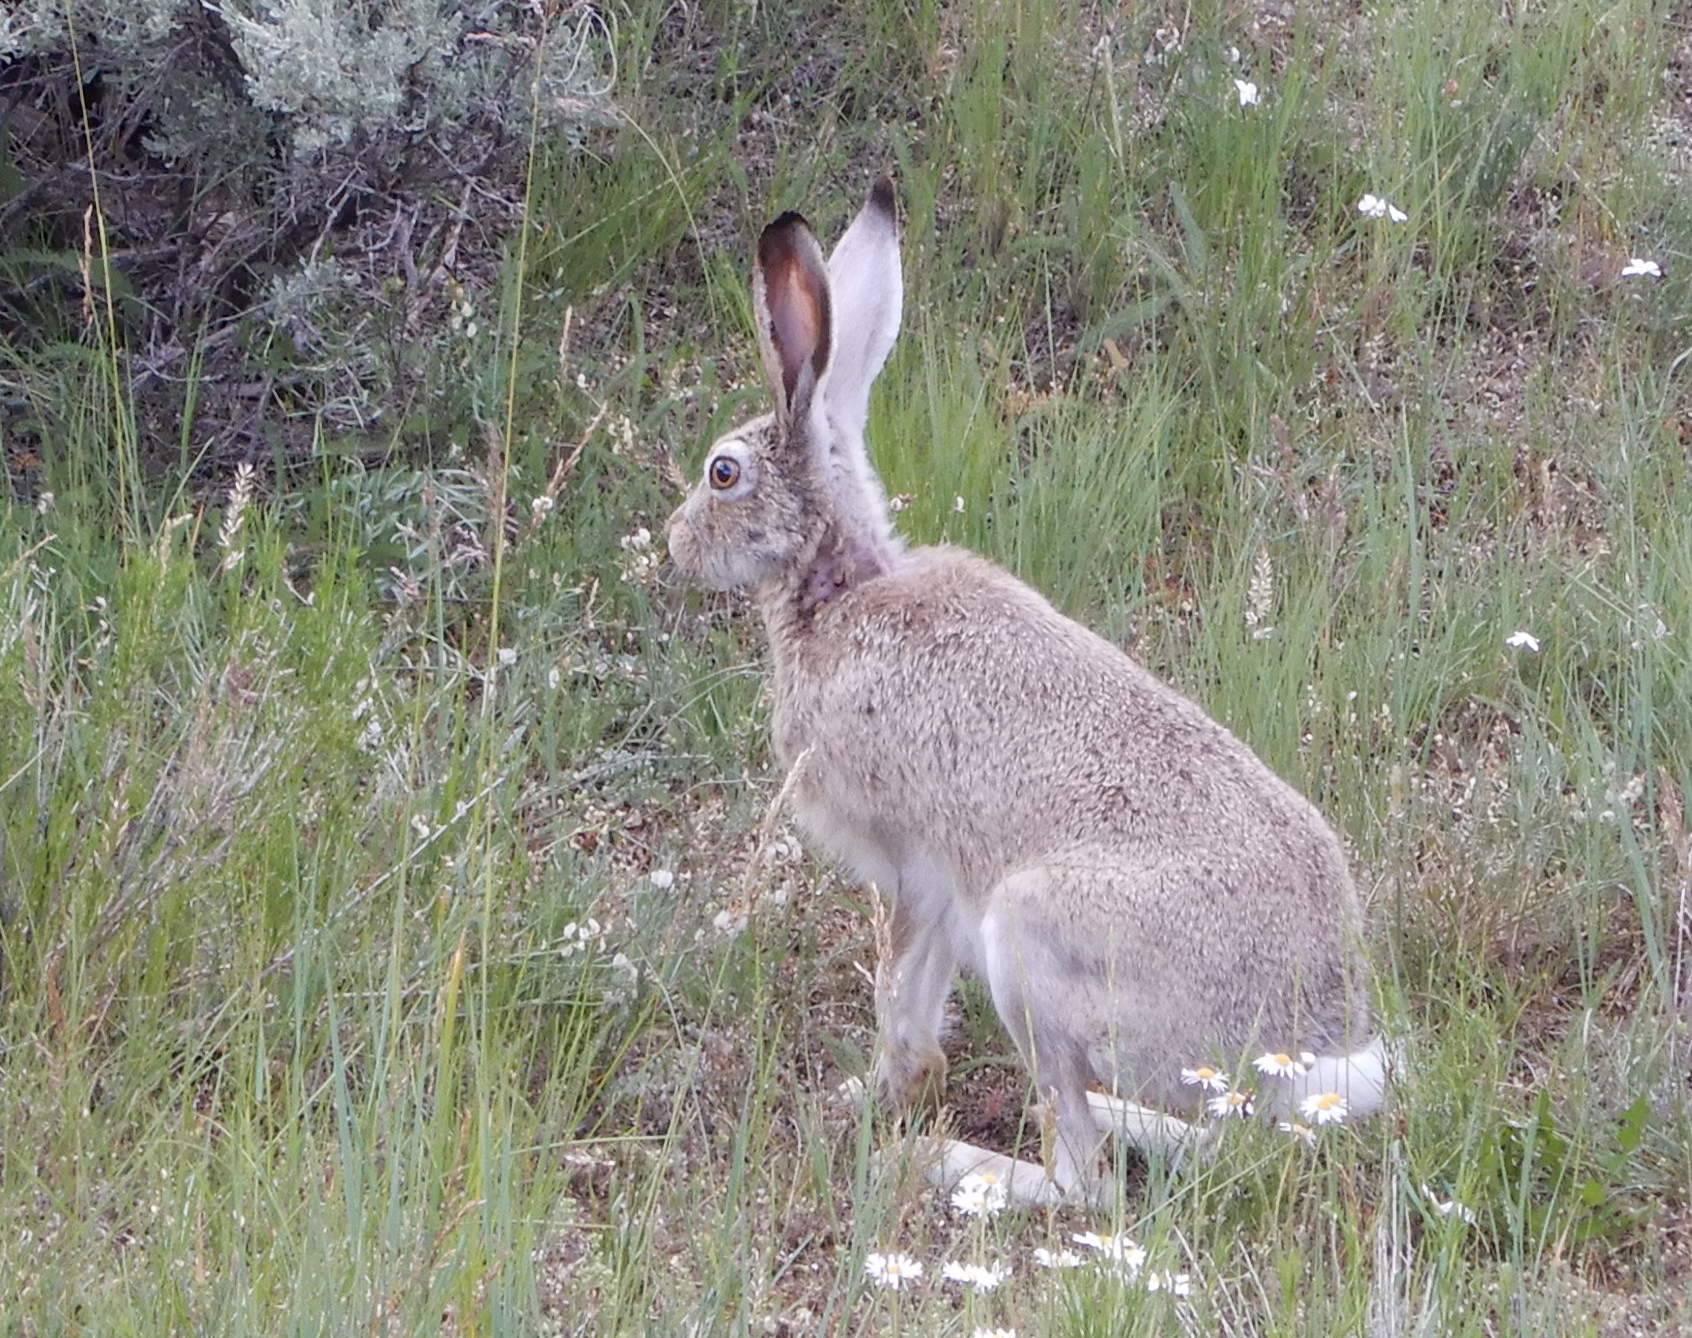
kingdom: Animalia
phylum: Chordata
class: Mammalia
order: Lagomorpha
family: Leporidae
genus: Lepus
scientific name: Lepus townsendii
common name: White-tailed jackrabbit
